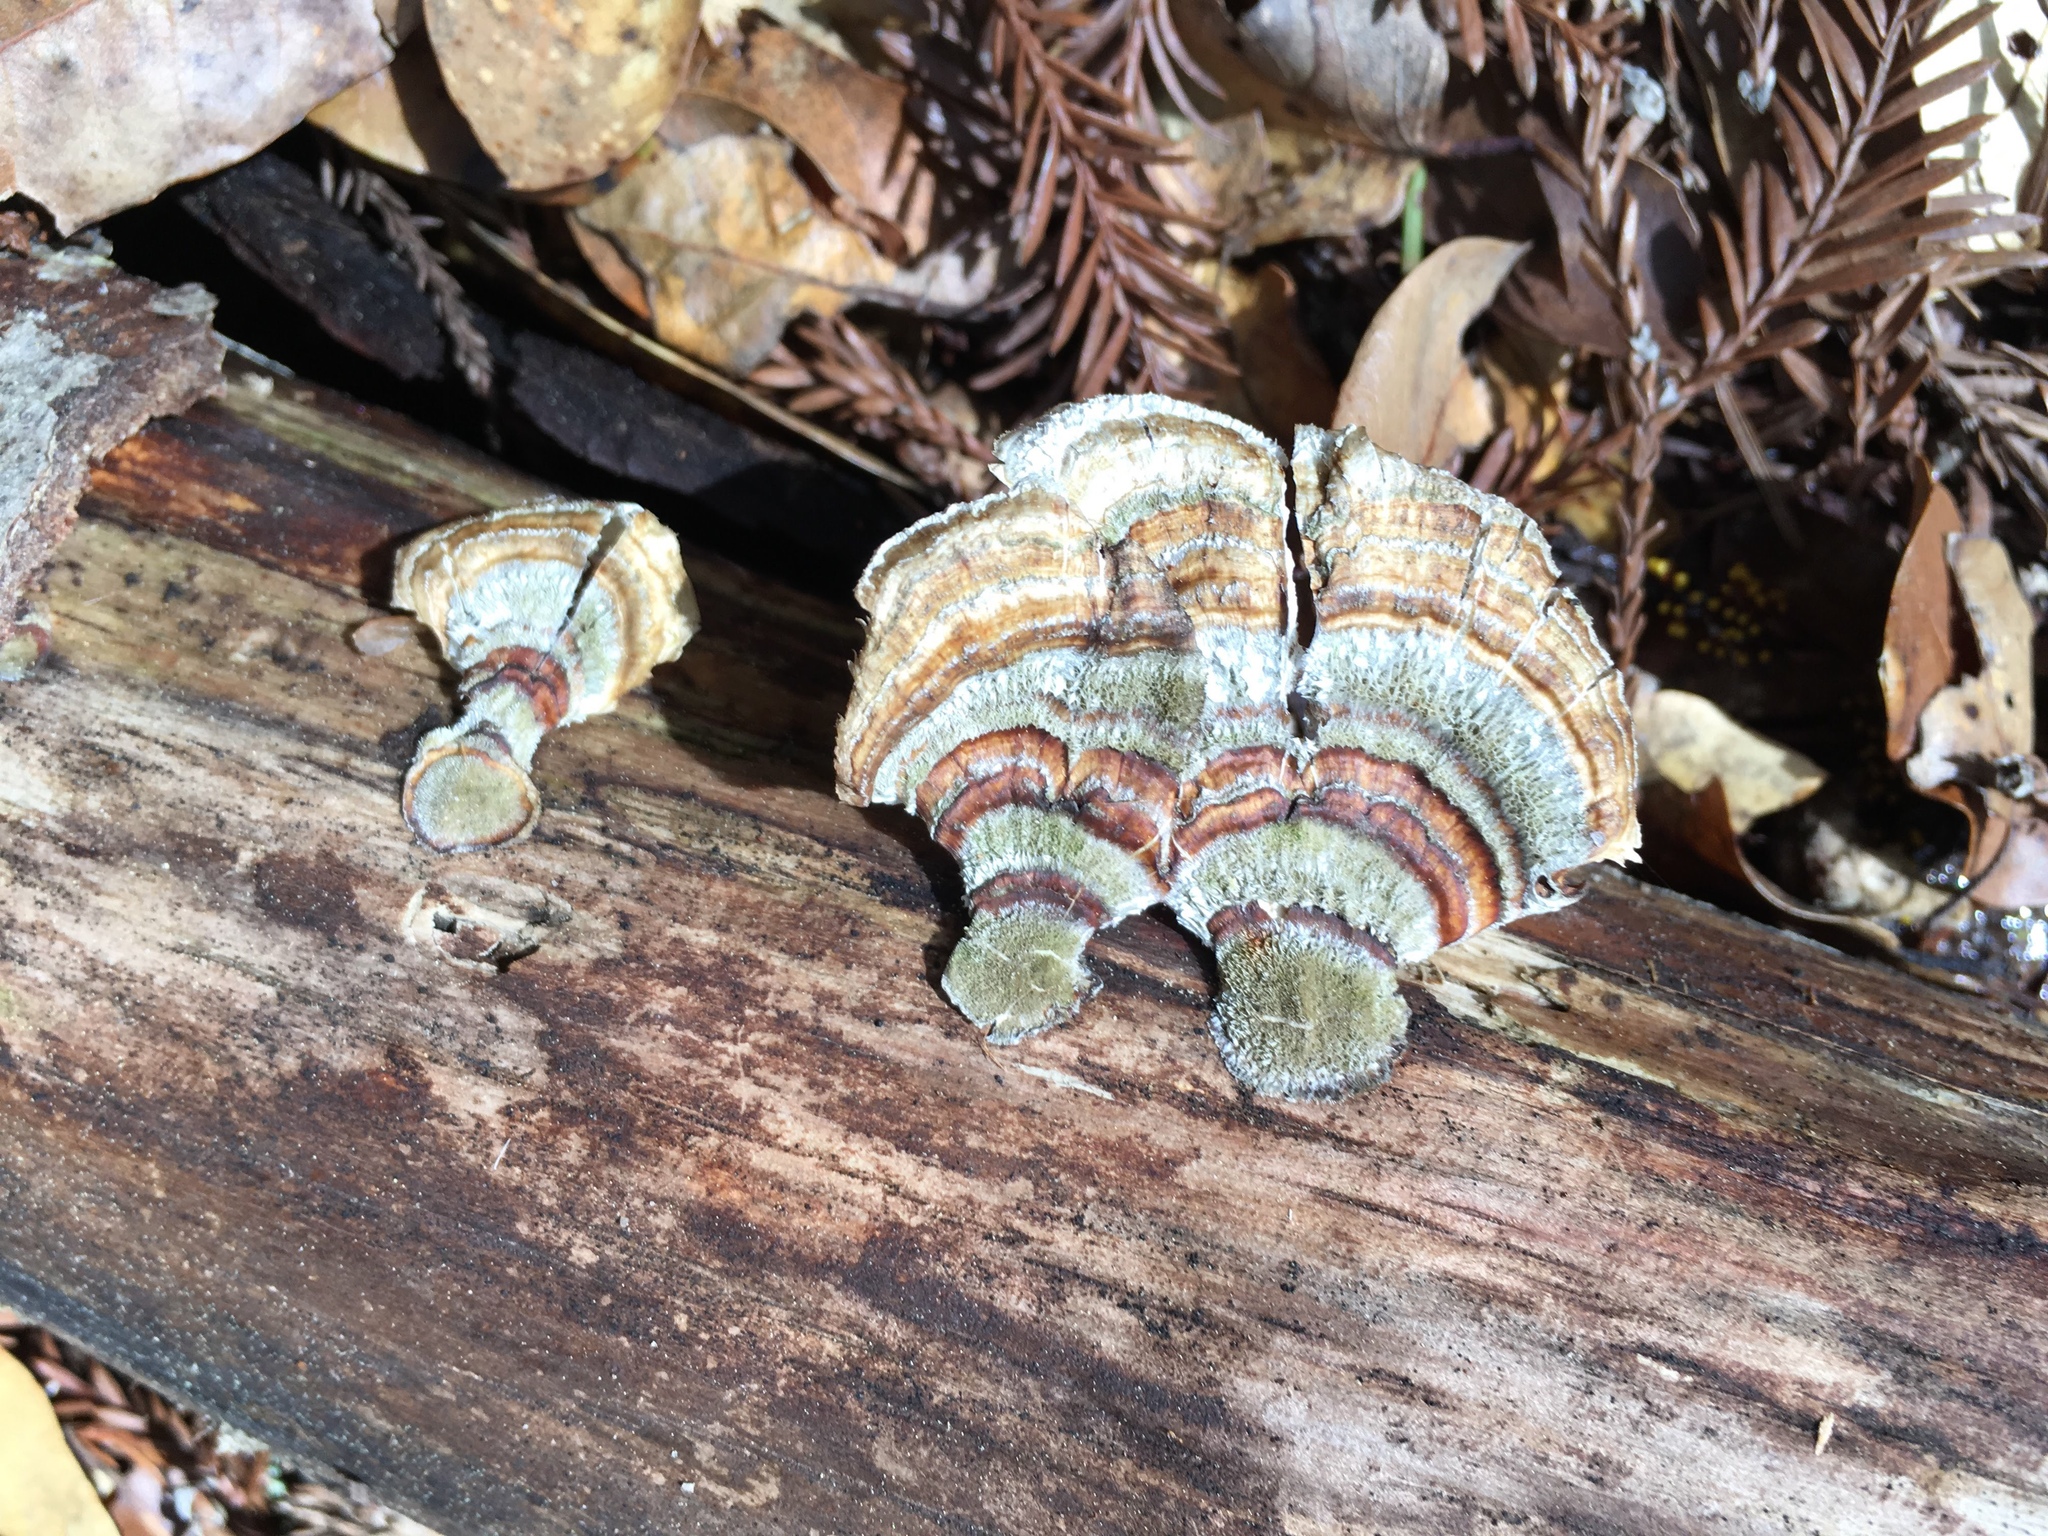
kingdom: Fungi
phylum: Basidiomycota
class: Agaricomycetes
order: Polyporales
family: Polyporaceae
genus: Trametes
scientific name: Trametes versicolor
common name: Turkeytail
